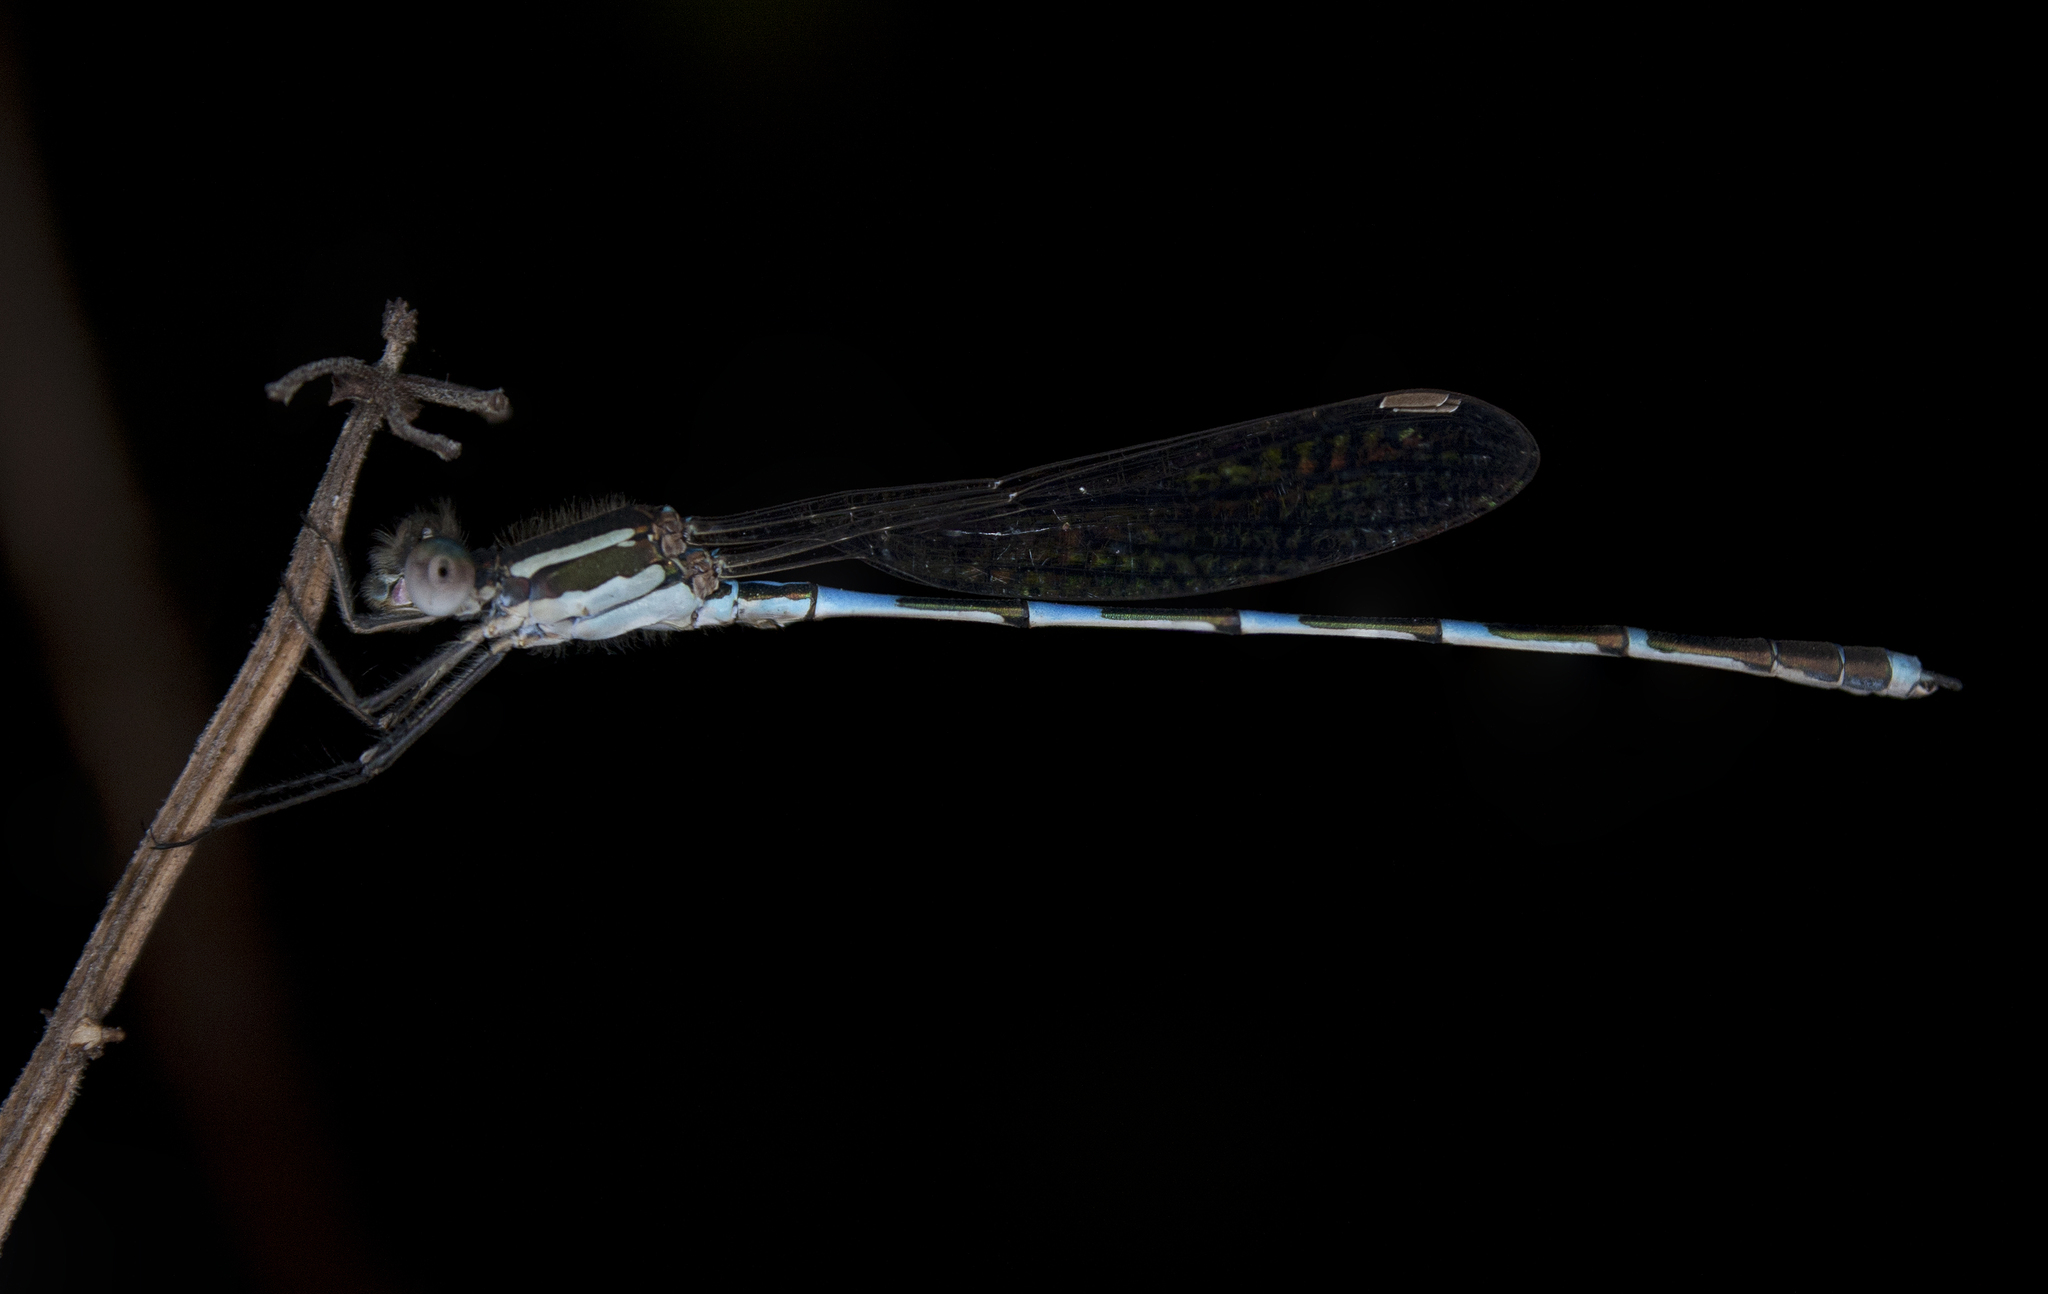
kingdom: Animalia
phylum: Arthropoda
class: Insecta
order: Odonata
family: Lestidae
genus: Austrolestes
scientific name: Austrolestes leda
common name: Wandering ringtail
